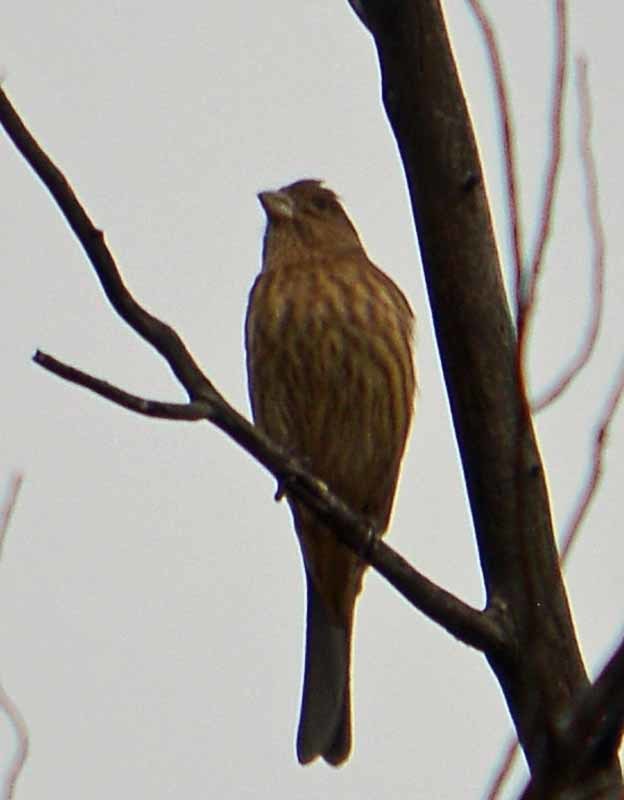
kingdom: Animalia
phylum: Chordata
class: Aves
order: Passeriformes
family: Fringillidae
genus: Haemorhous
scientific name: Haemorhous mexicanus
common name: House finch
